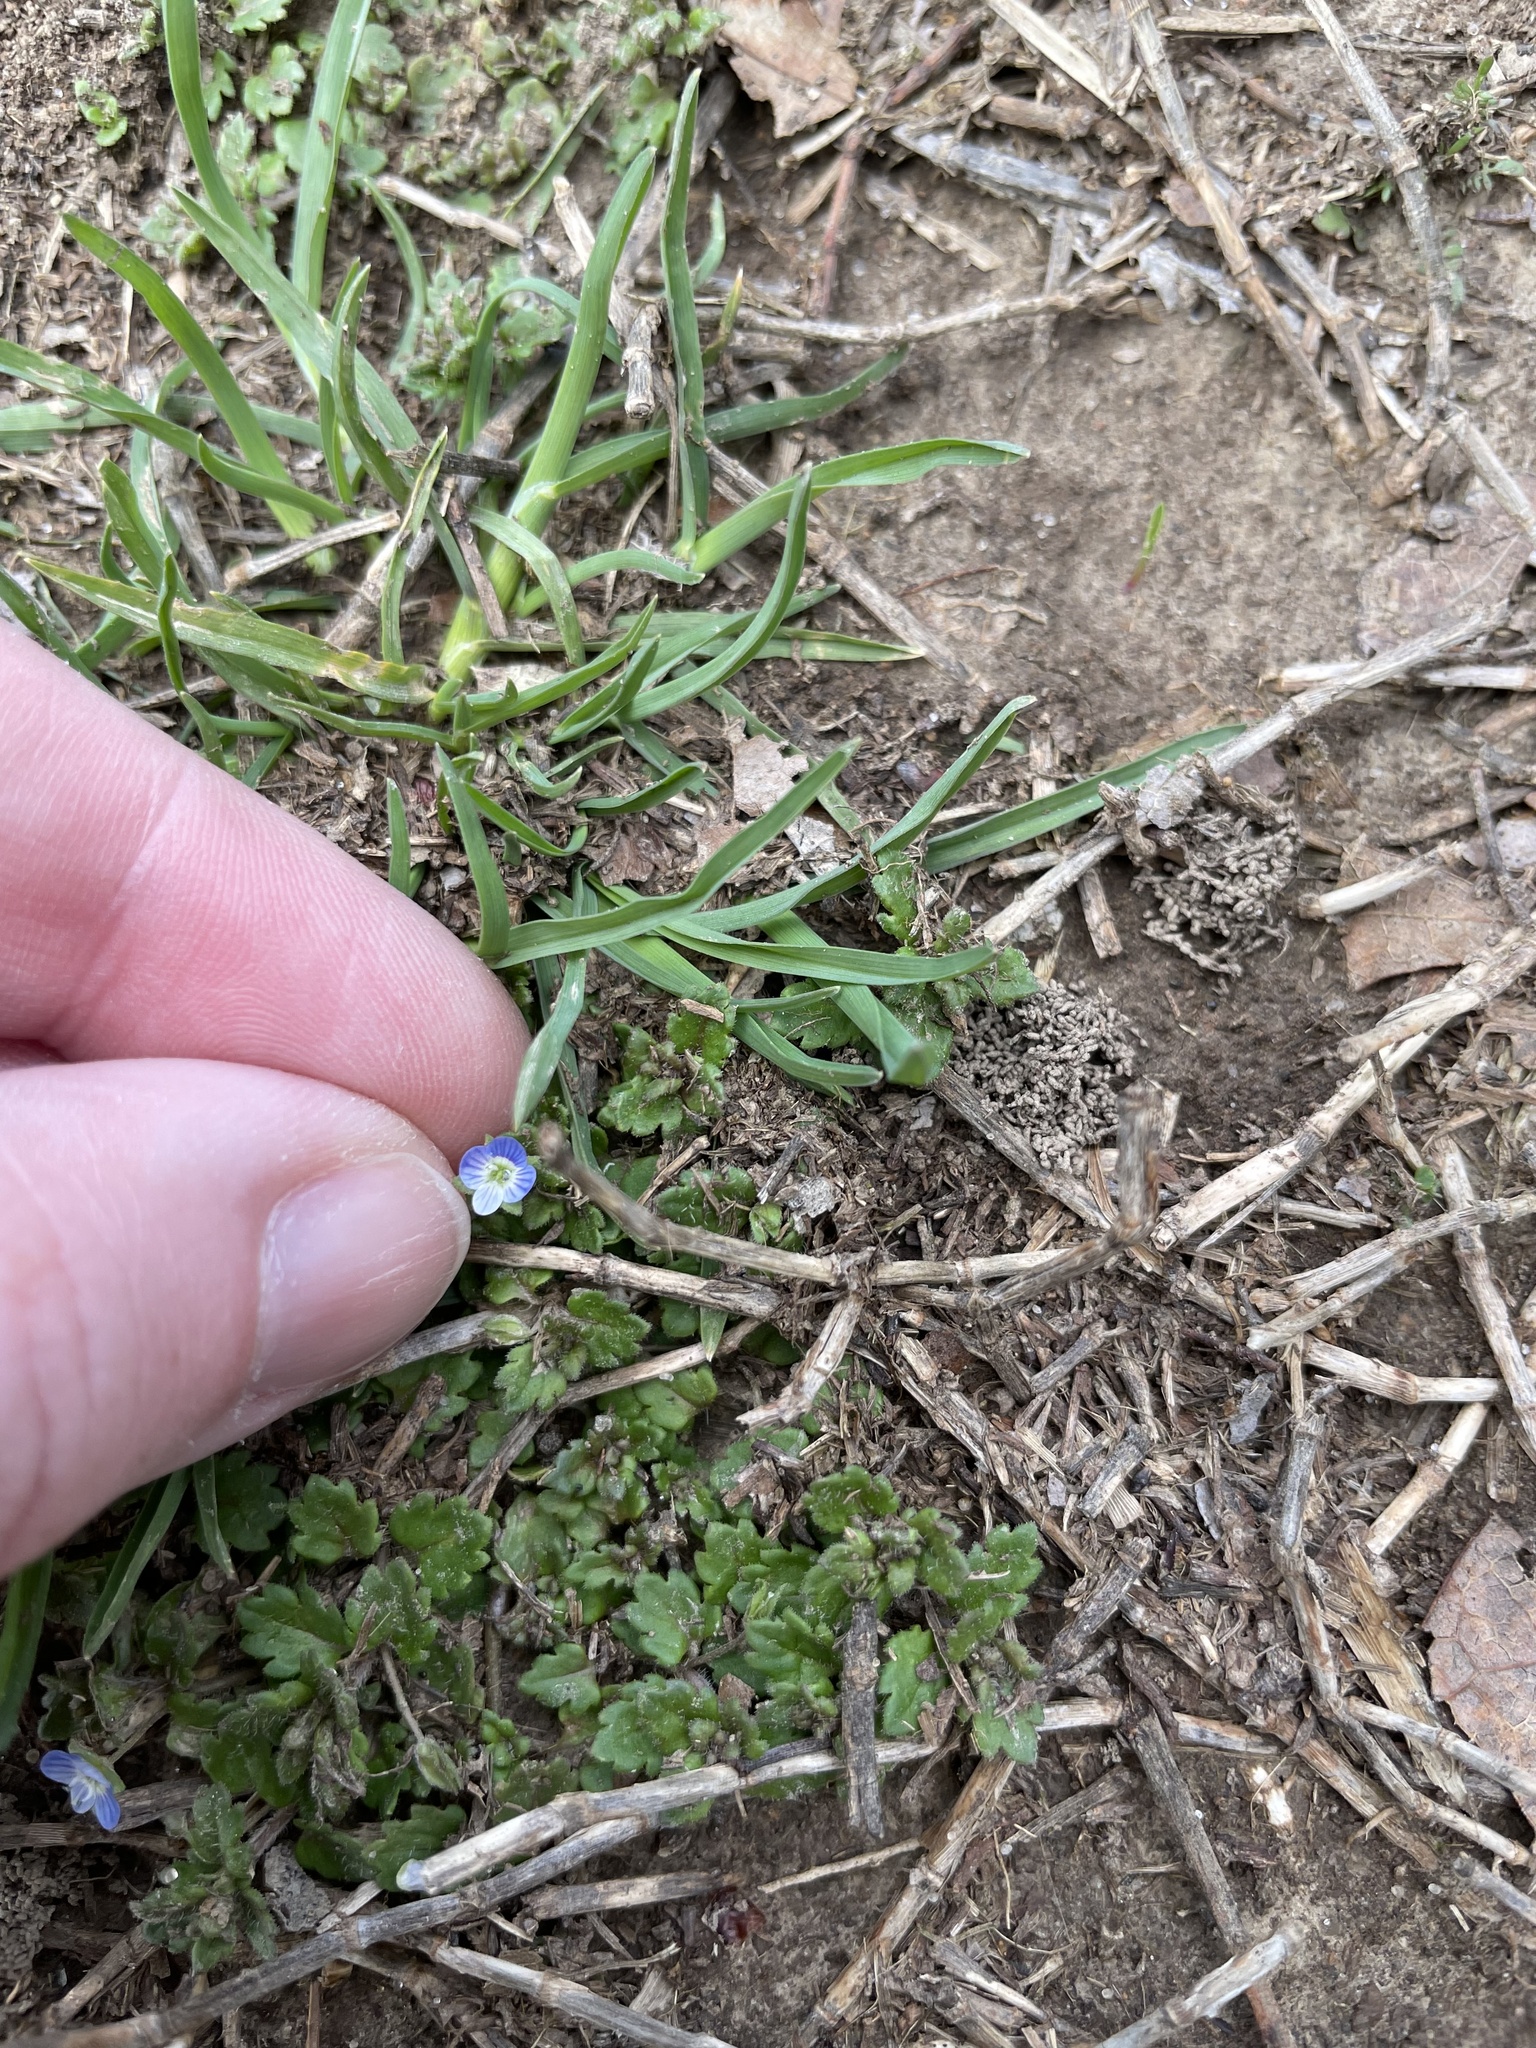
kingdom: Plantae
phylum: Tracheophyta
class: Magnoliopsida
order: Lamiales
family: Plantaginaceae
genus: Veronica
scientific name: Veronica polita
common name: Grey field-speedwell
